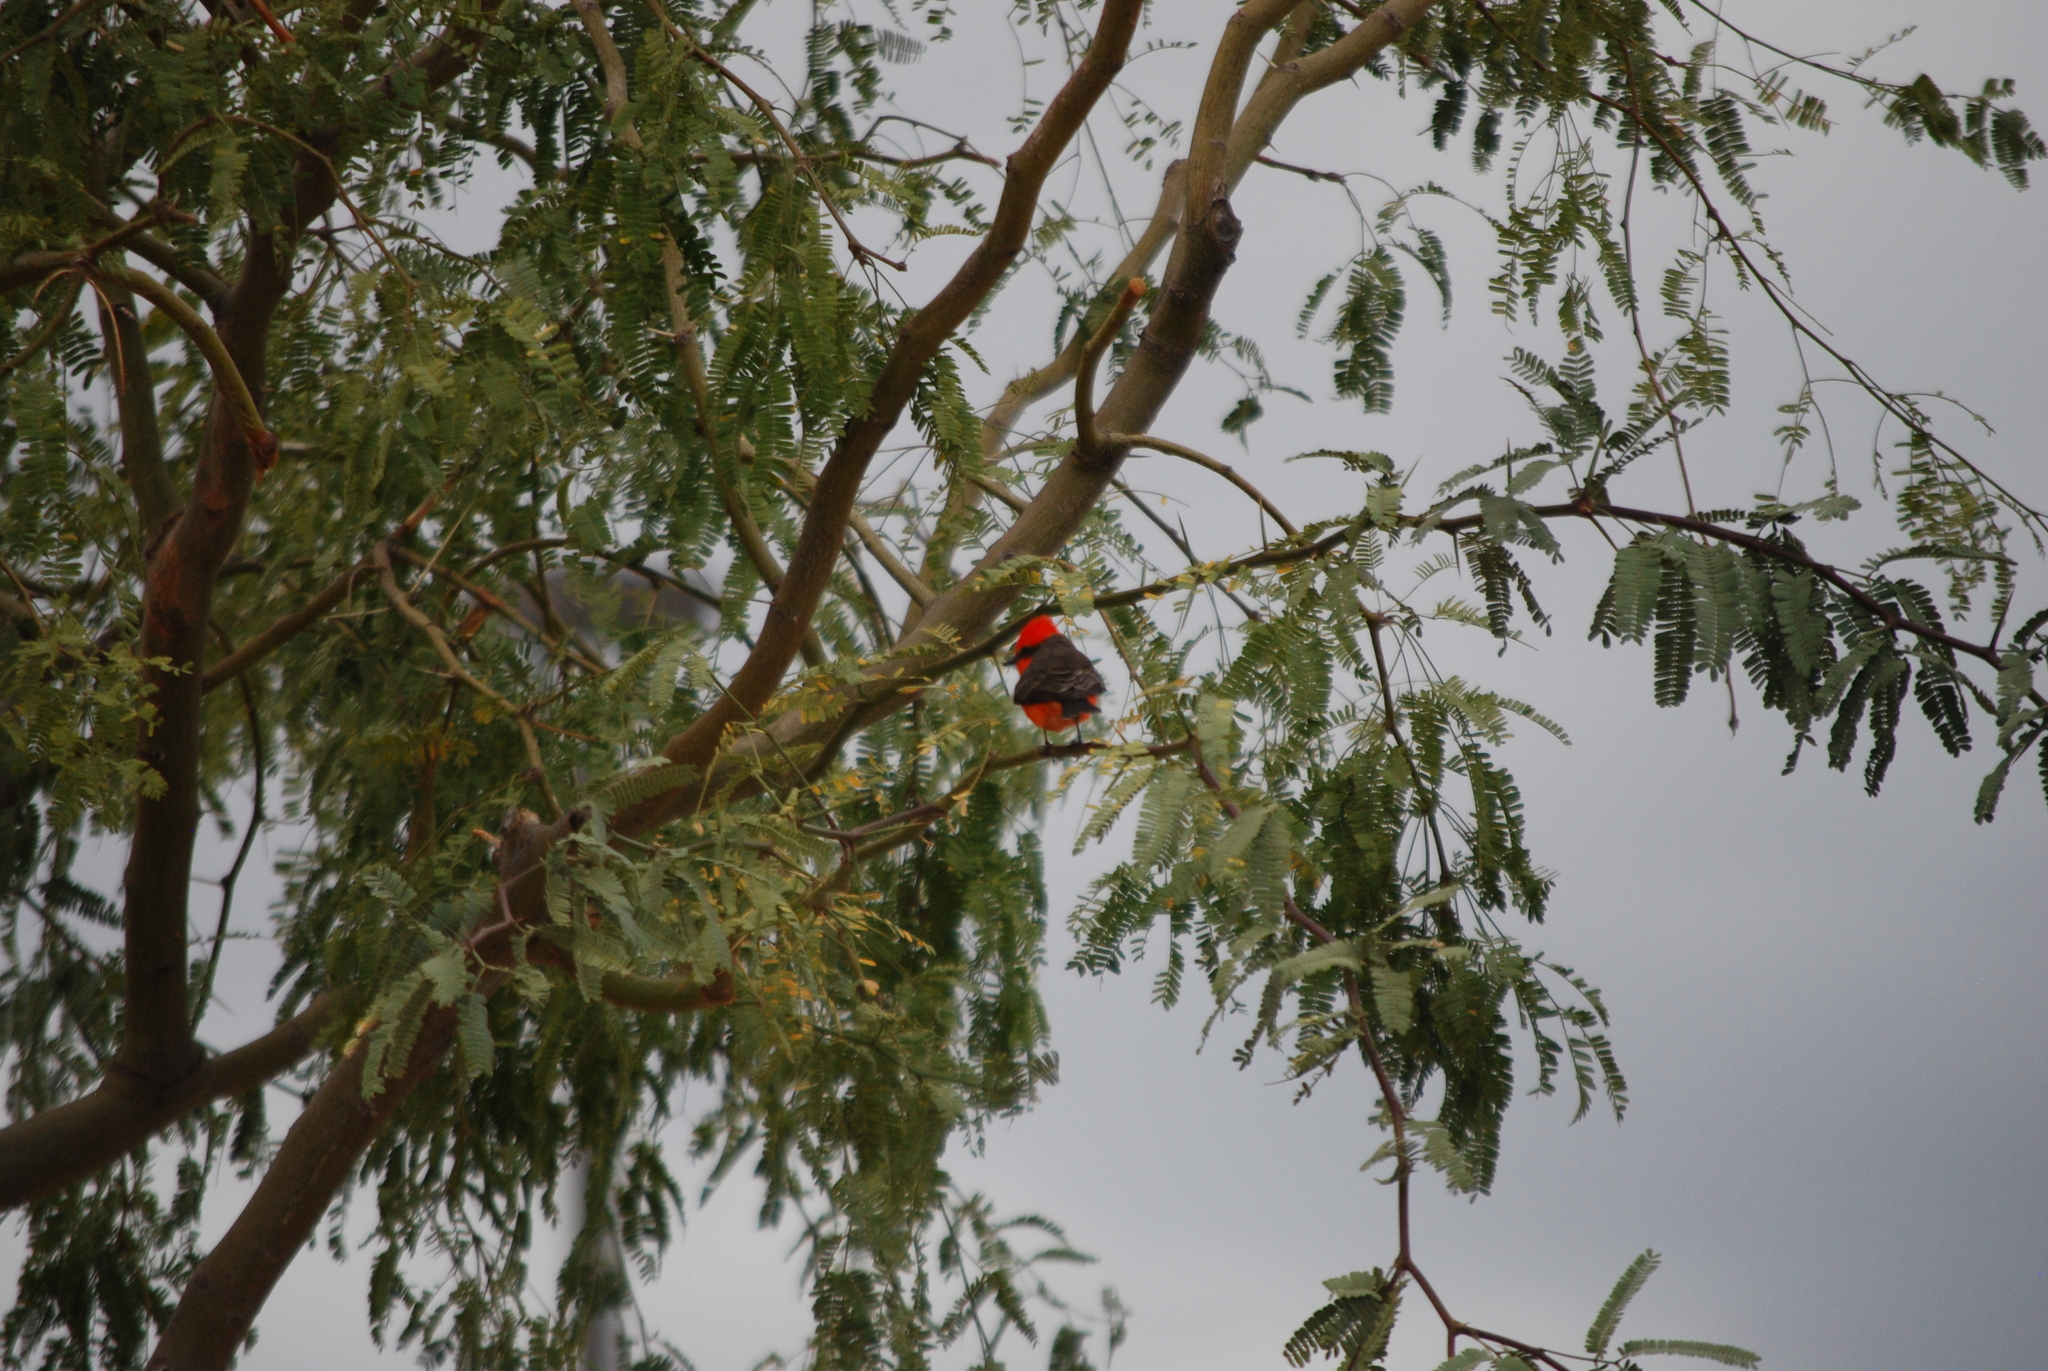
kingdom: Animalia
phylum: Chordata
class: Aves
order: Passeriformes
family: Tyrannidae
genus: Pyrocephalus
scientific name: Pyrocephalus rubinus
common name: Vermilion flycatcher
